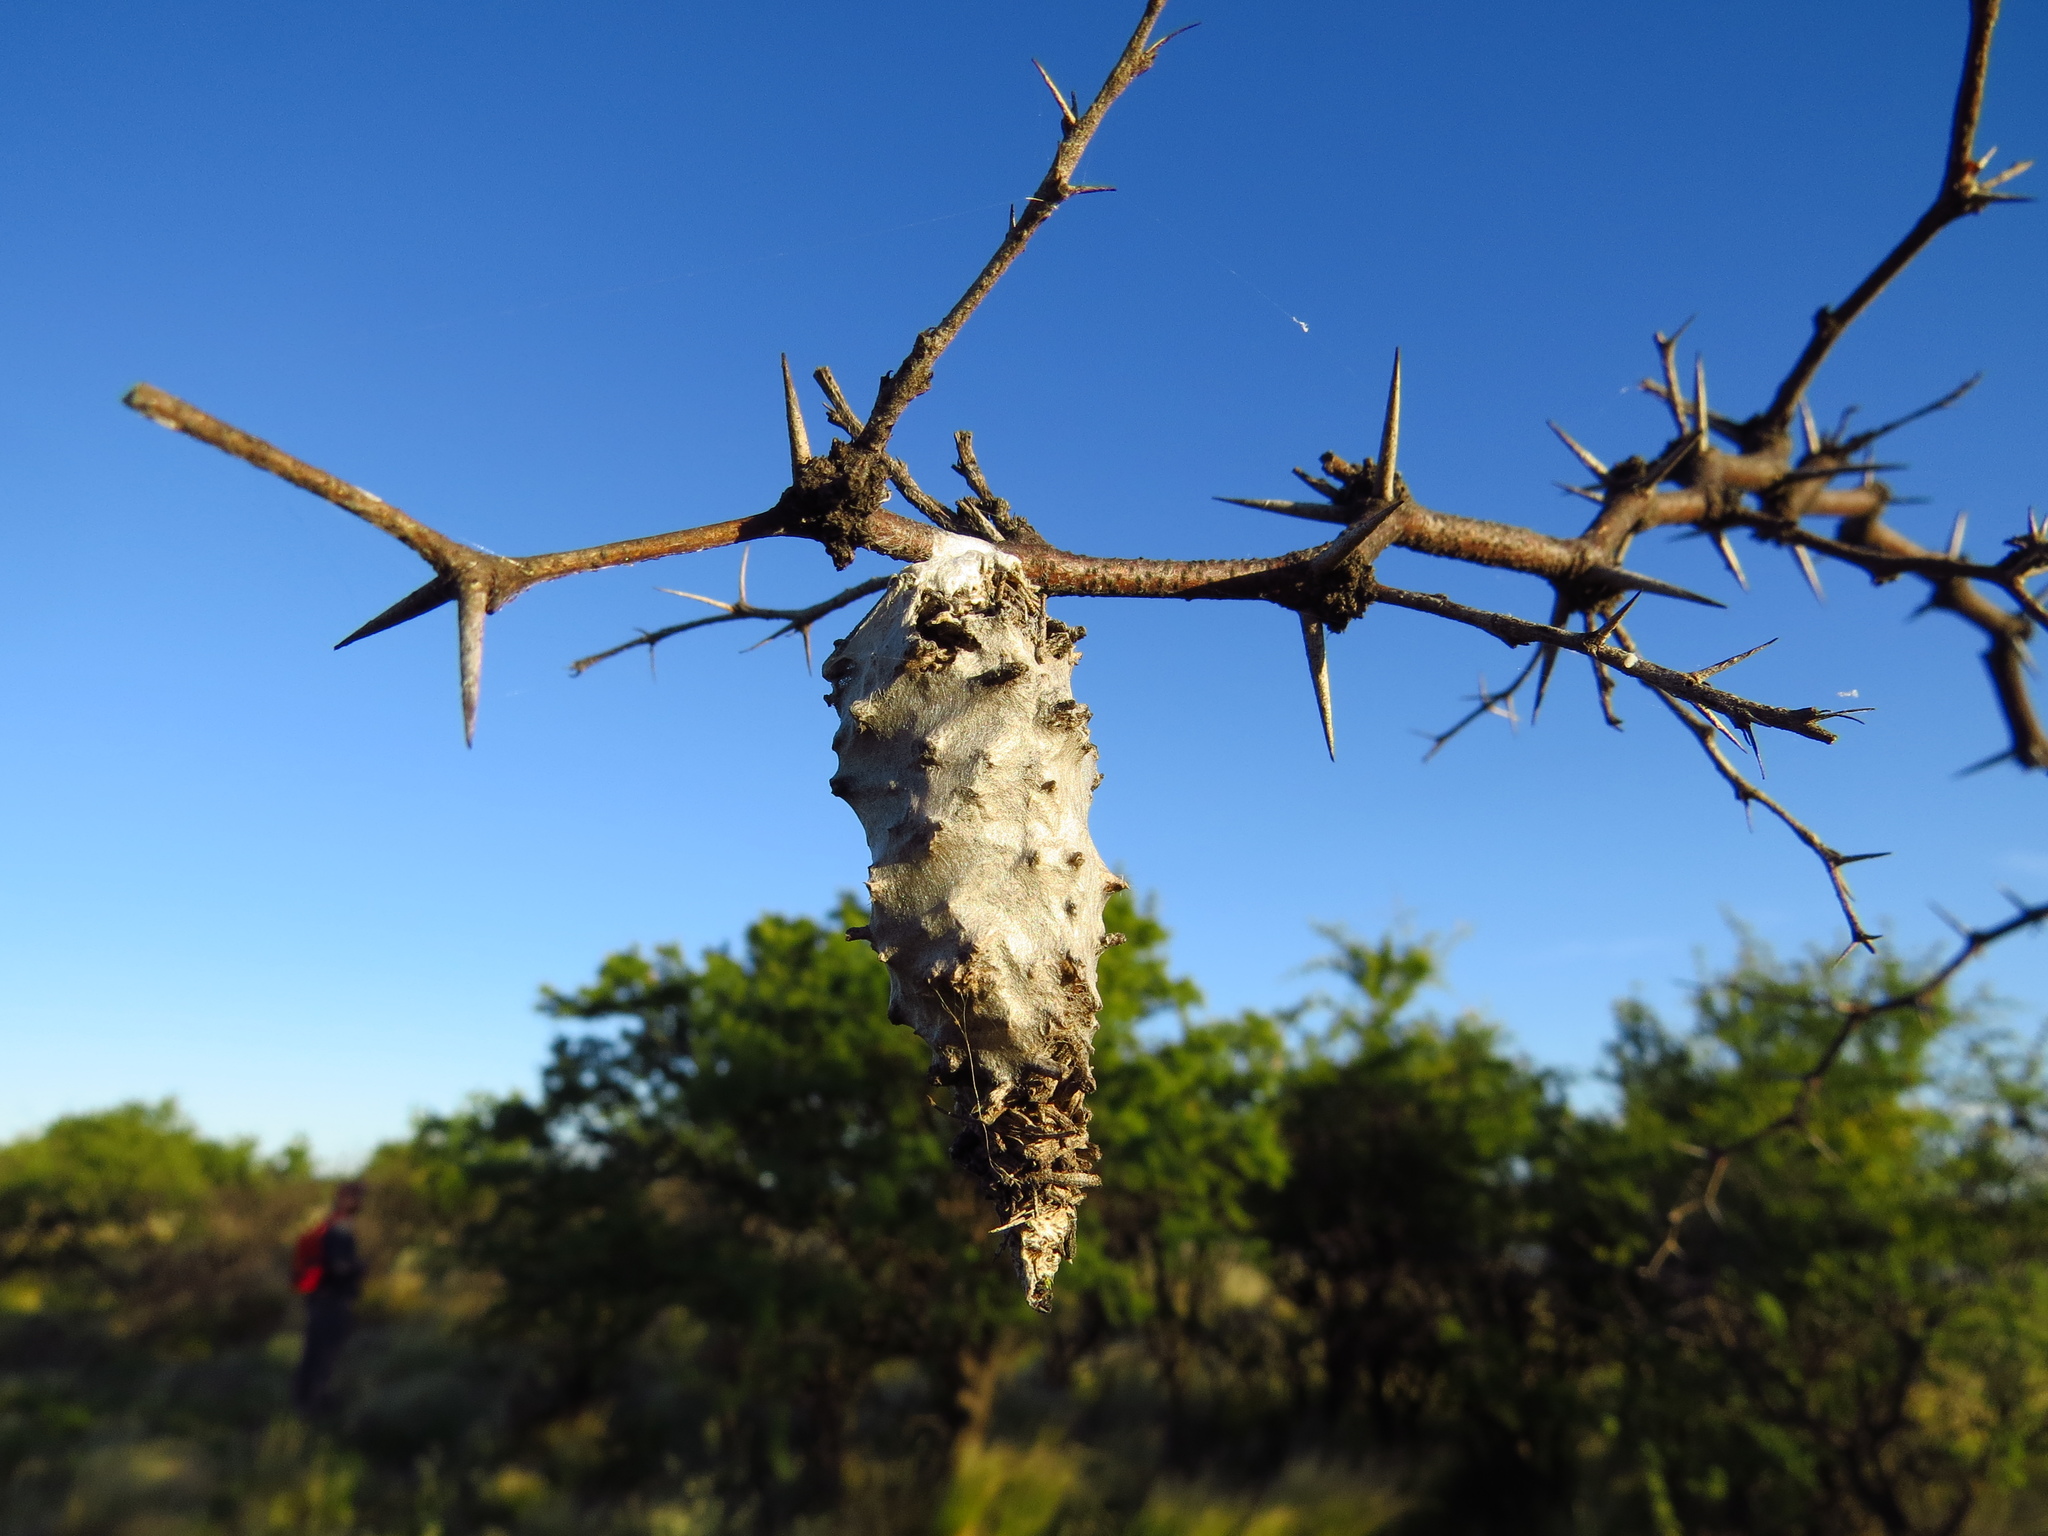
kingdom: Animalia
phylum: Arthropoda
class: Insecta
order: Lepidoptera
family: Psychidae
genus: Oiketicus
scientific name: Oiketicus
